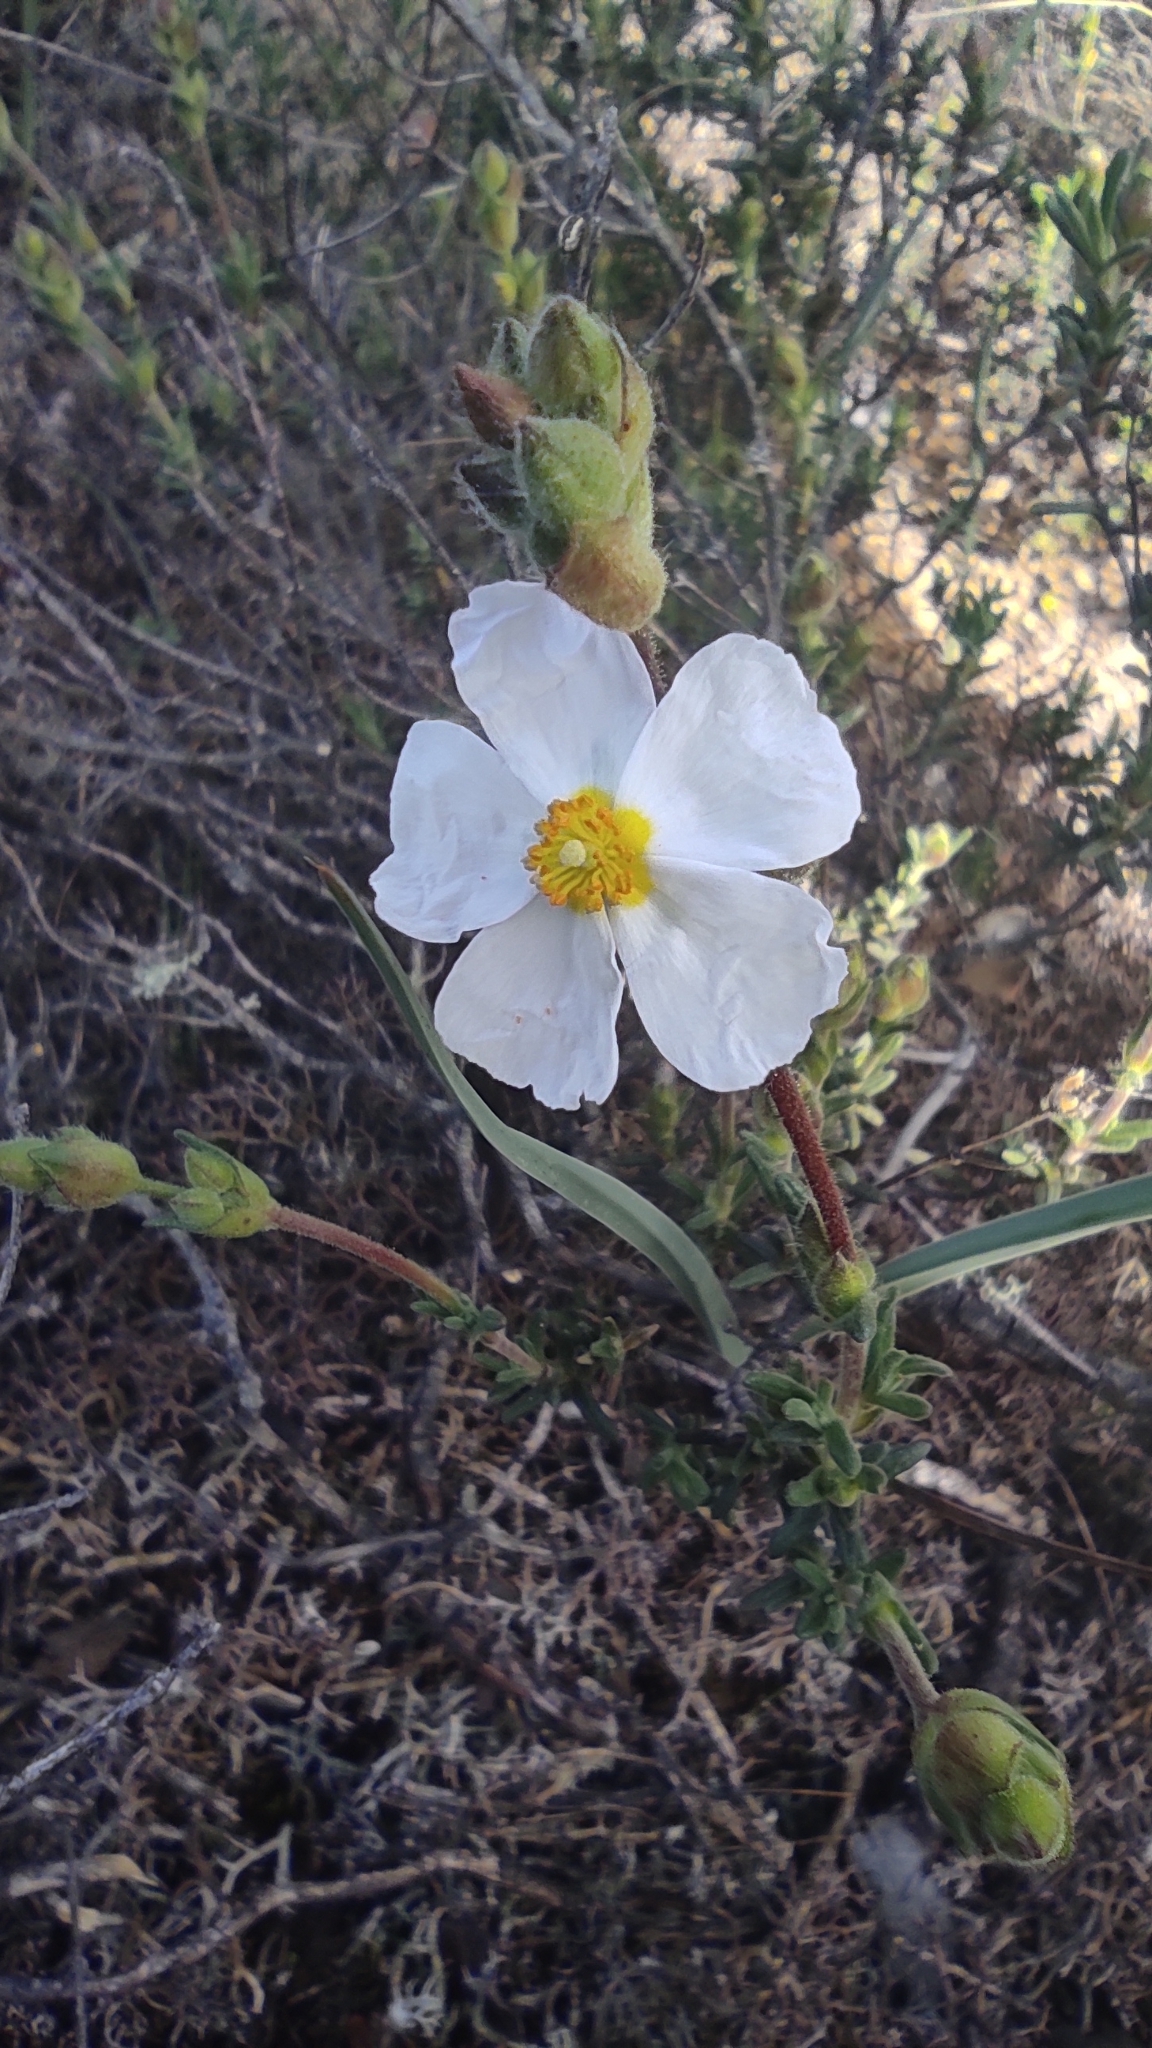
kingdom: Plantae
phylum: Tracheophyta
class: Magnoliopsida
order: Malvales
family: Cistaceae
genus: Halimium
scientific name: Halimium umbellatum
